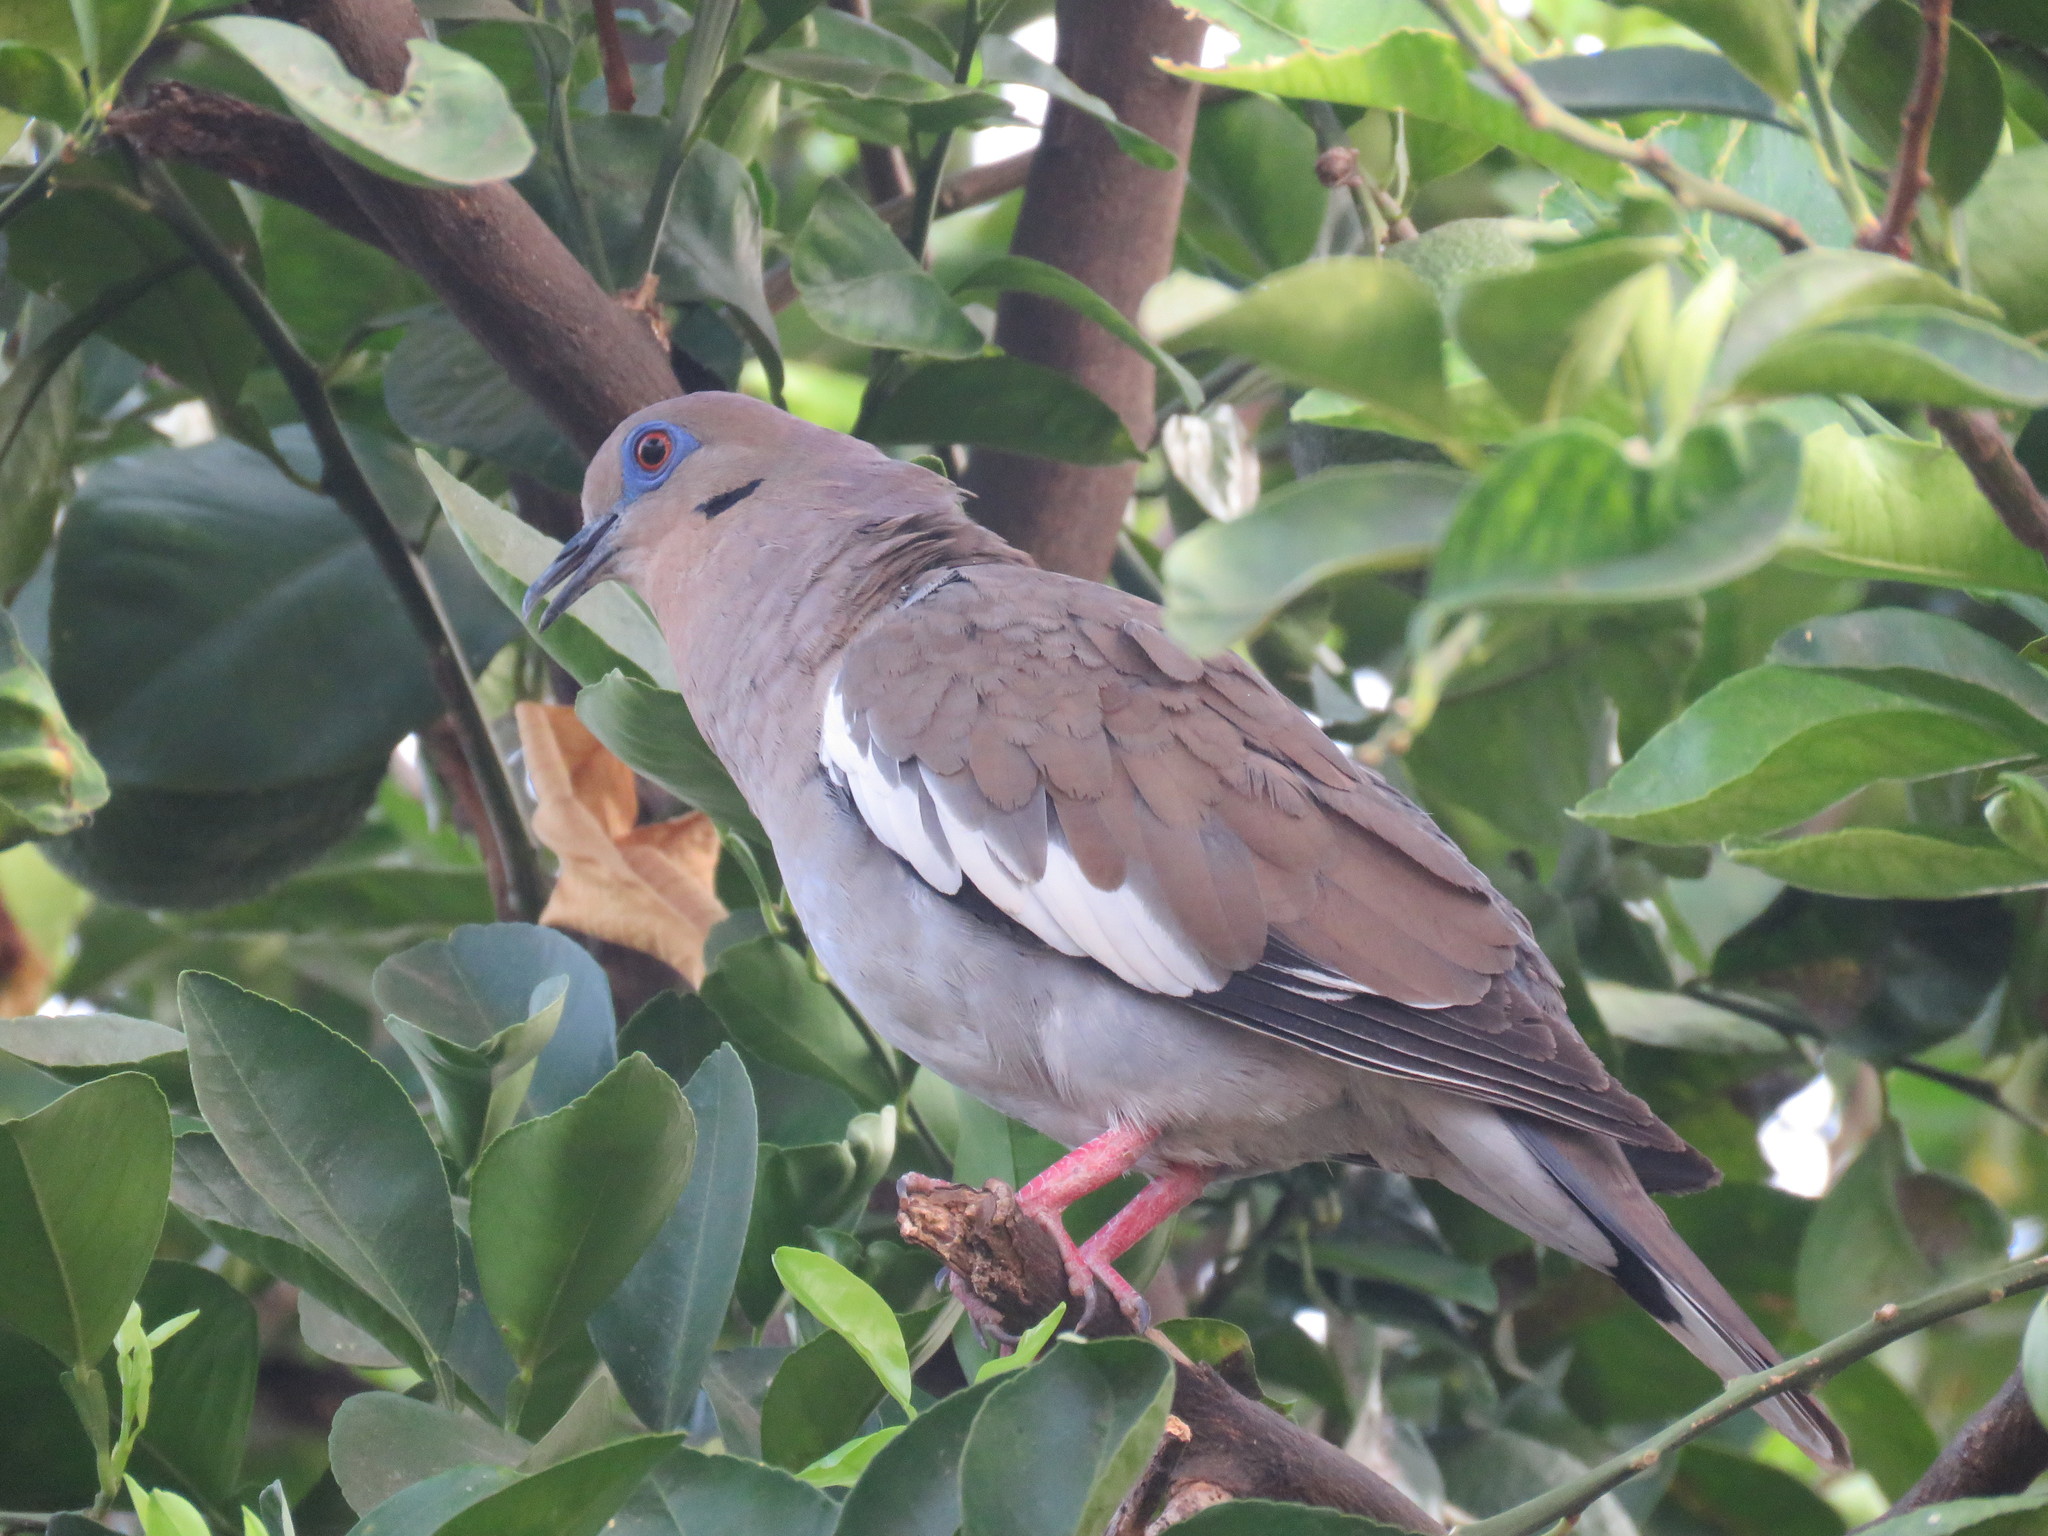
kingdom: Animalia
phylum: Chordata
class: Aves
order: Columbiformes
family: Columbidae
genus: Zenaida
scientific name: Zenaida asiatica
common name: White-winged dove
